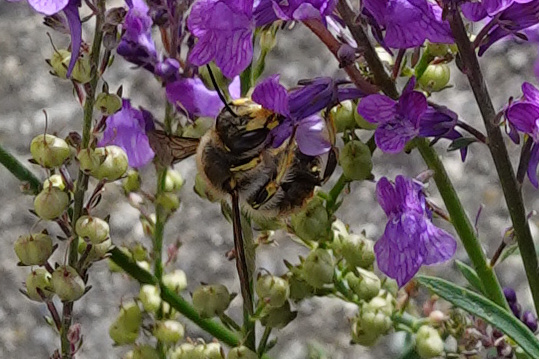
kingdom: Animalia
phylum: Arthropoda
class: Insecta
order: Hymenoptera
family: Megachilidae
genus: Anthidium
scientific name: Anthidium manicatum
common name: Wool carder bee
